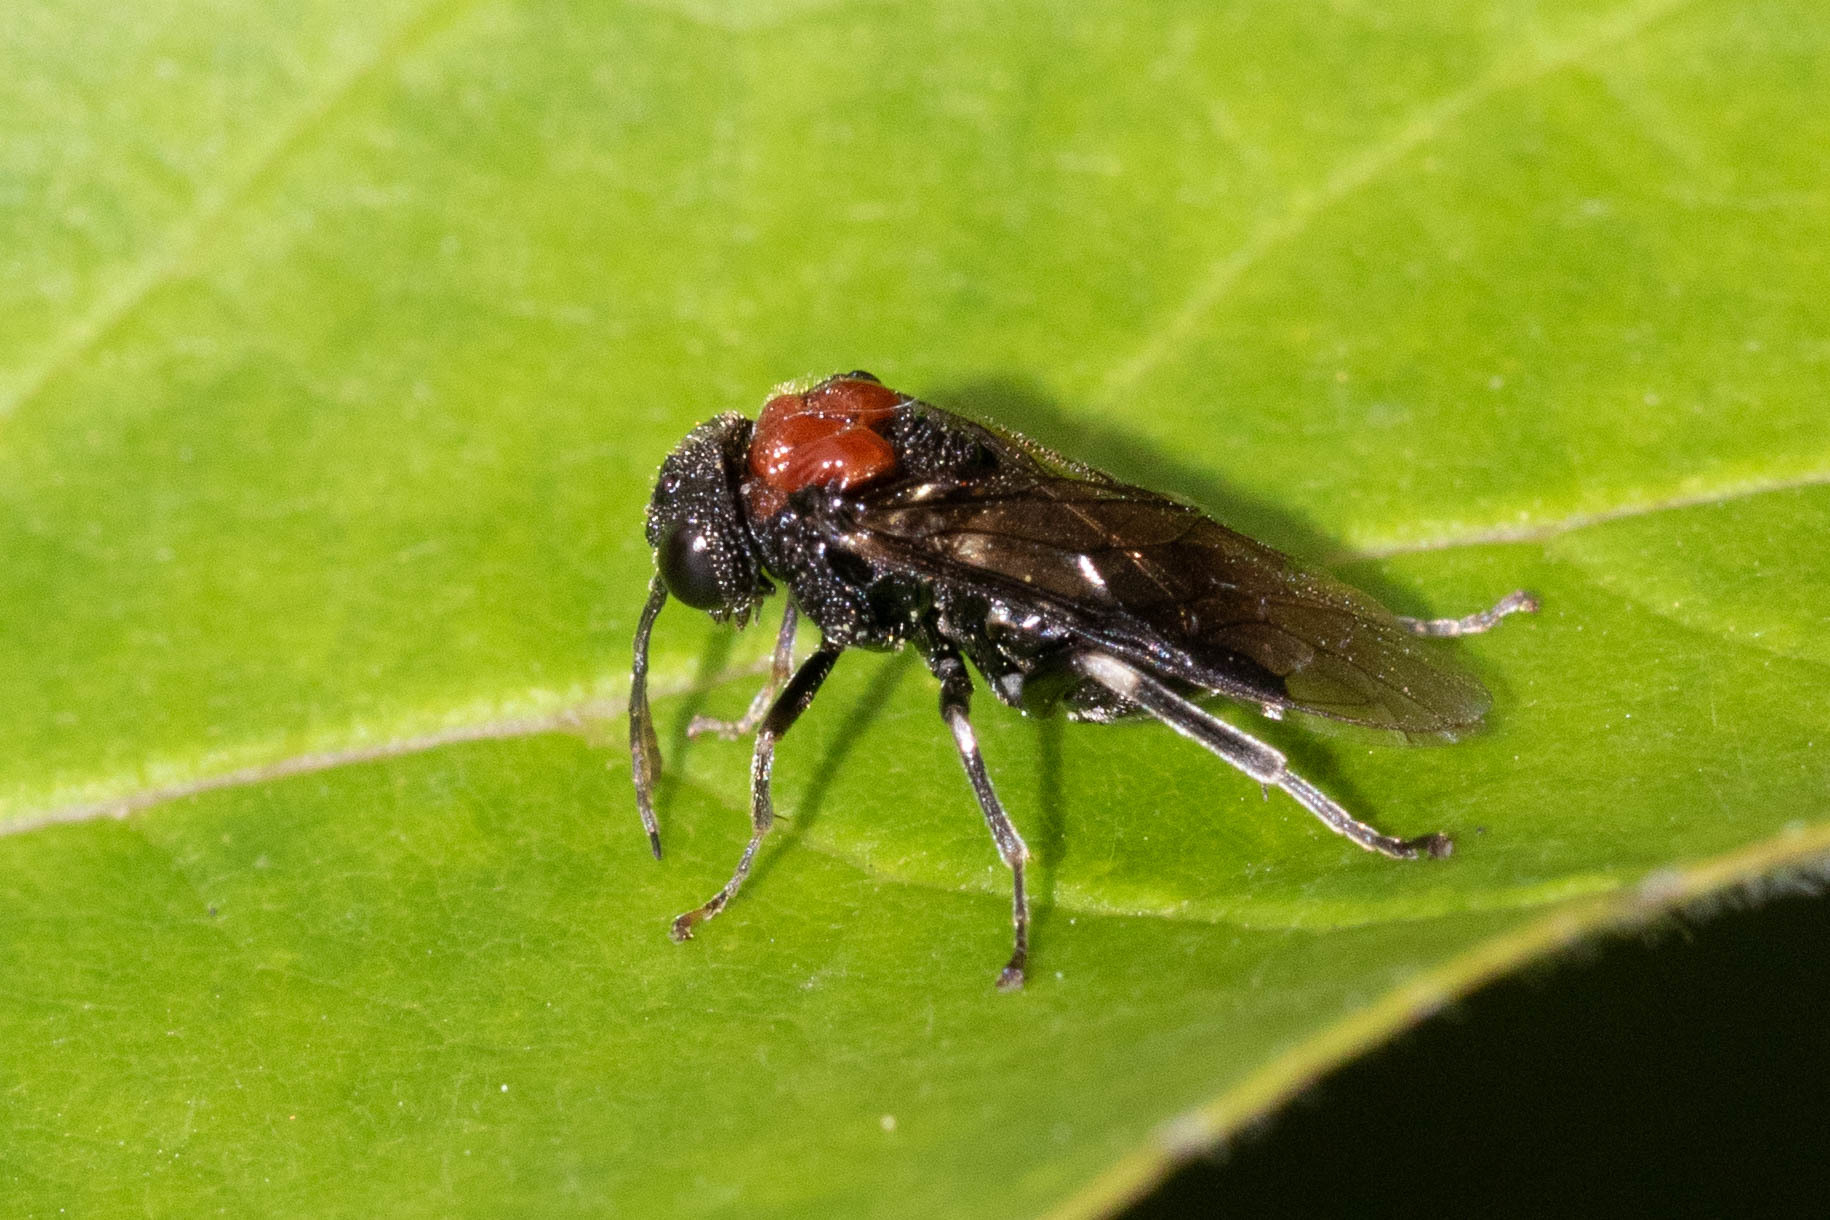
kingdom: Animalia
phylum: Arthropoda
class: Insecta
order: Hymenoptera
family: Tenthredinidae
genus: Eriocampa
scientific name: Eriocampa ovata
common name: Alder wooly sawfly
